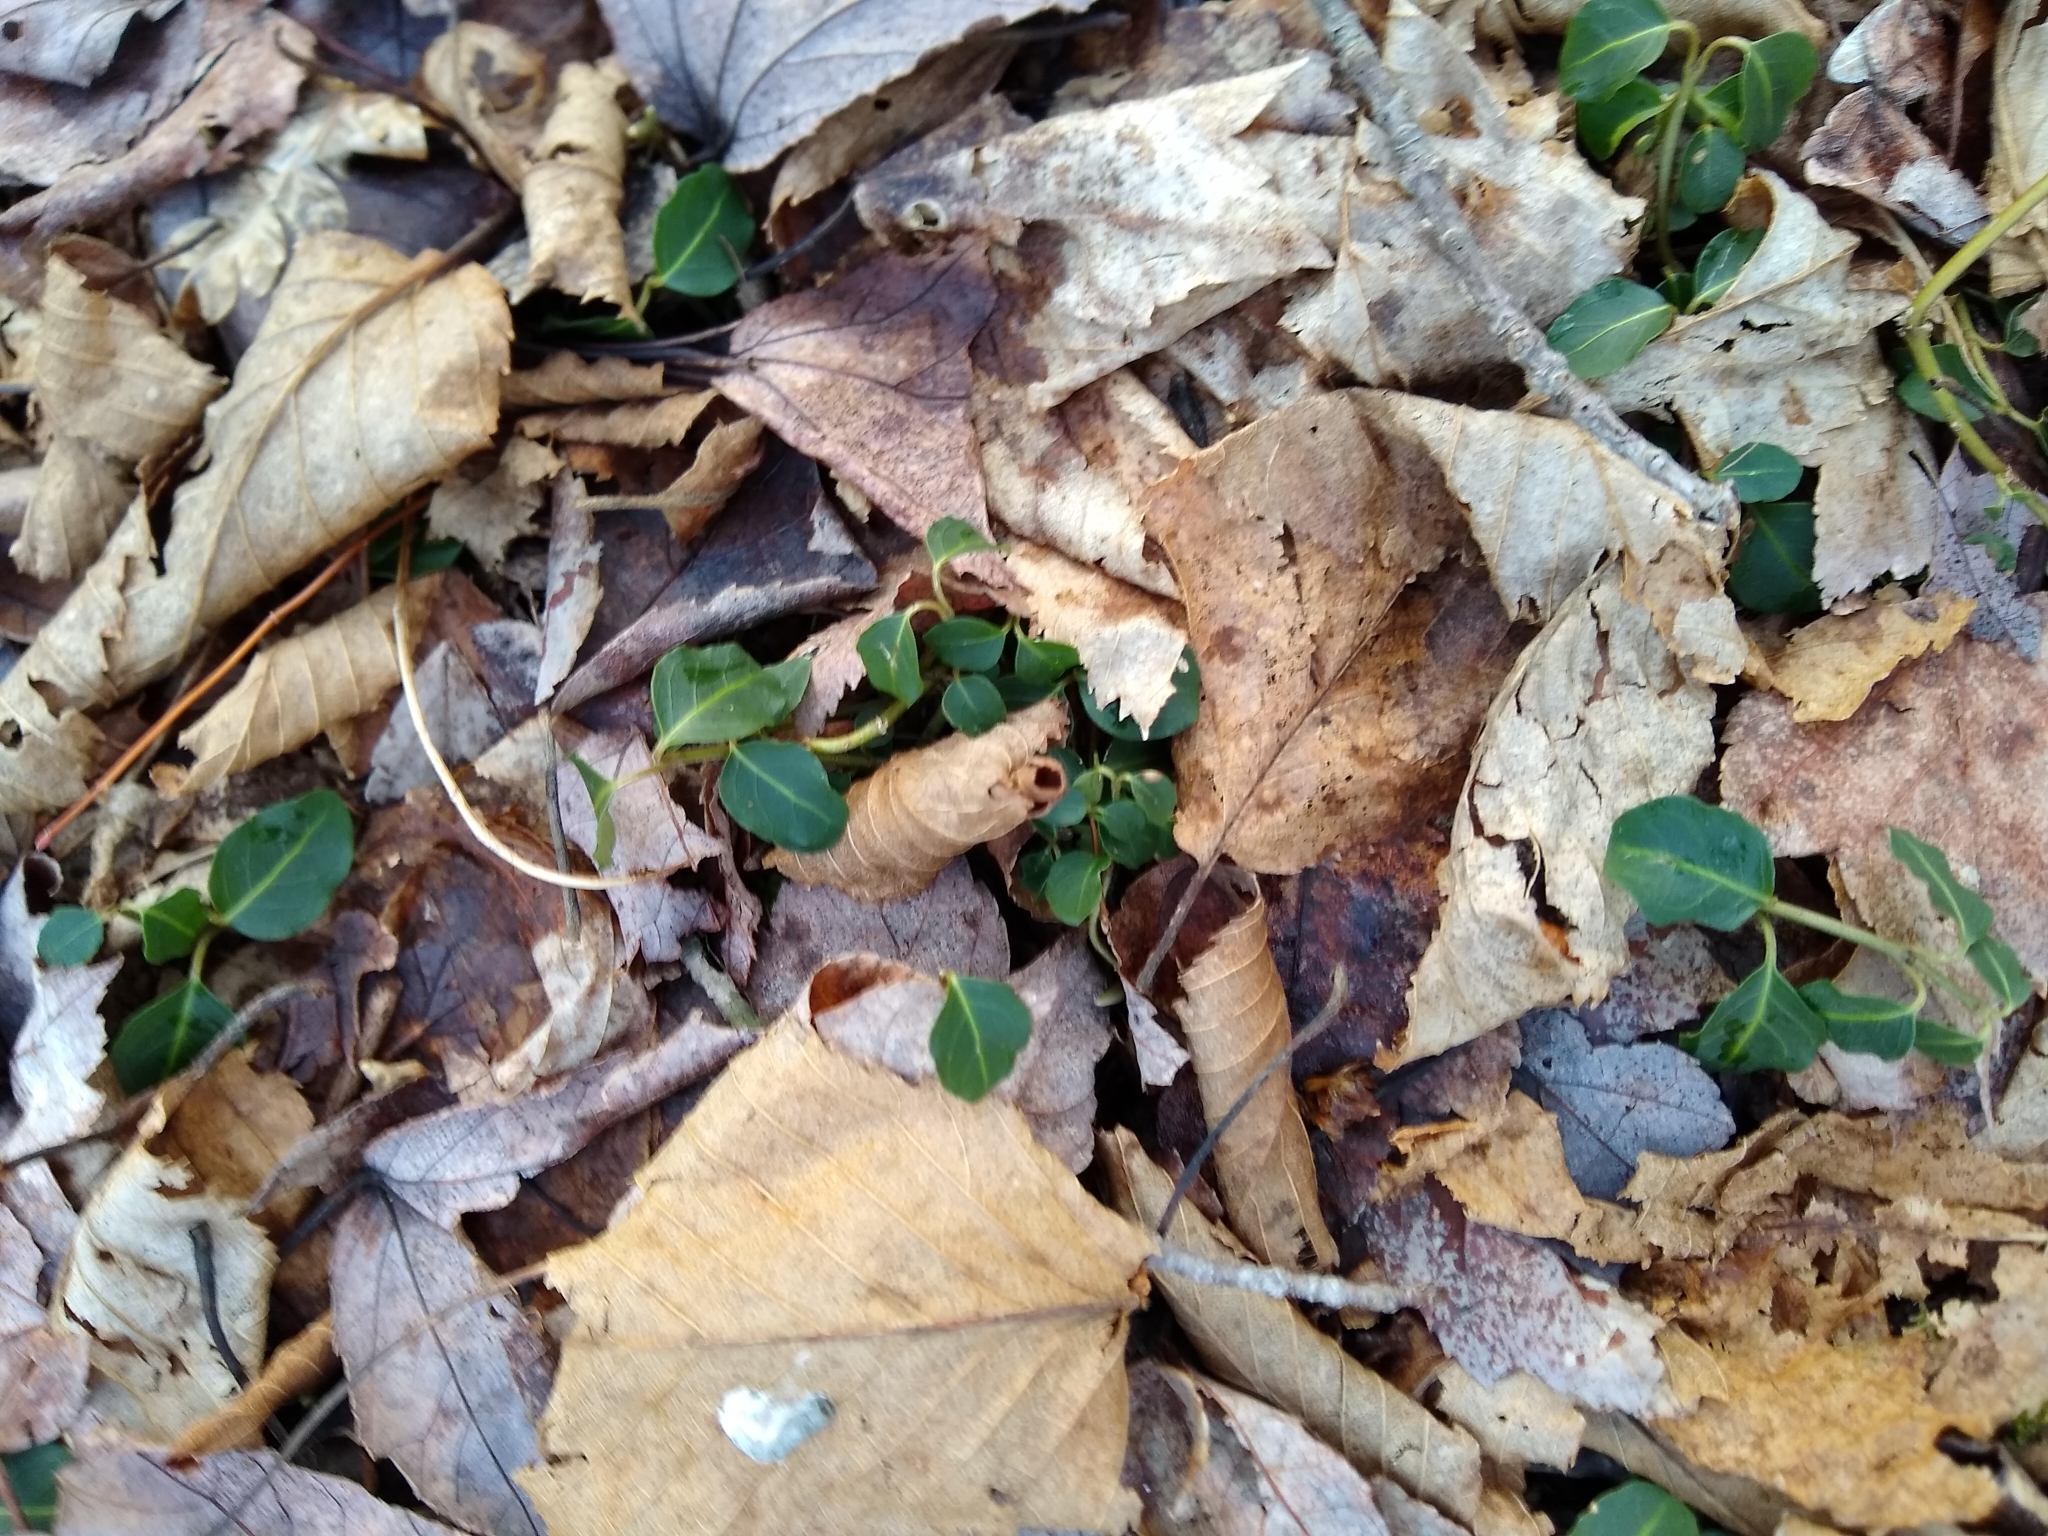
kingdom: Plantae
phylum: Tracheophyta
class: Magnoliopsida
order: Gentianales
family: Rubiaceae
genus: Mitchella
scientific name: Mitchella repens
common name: Partridge-berry
